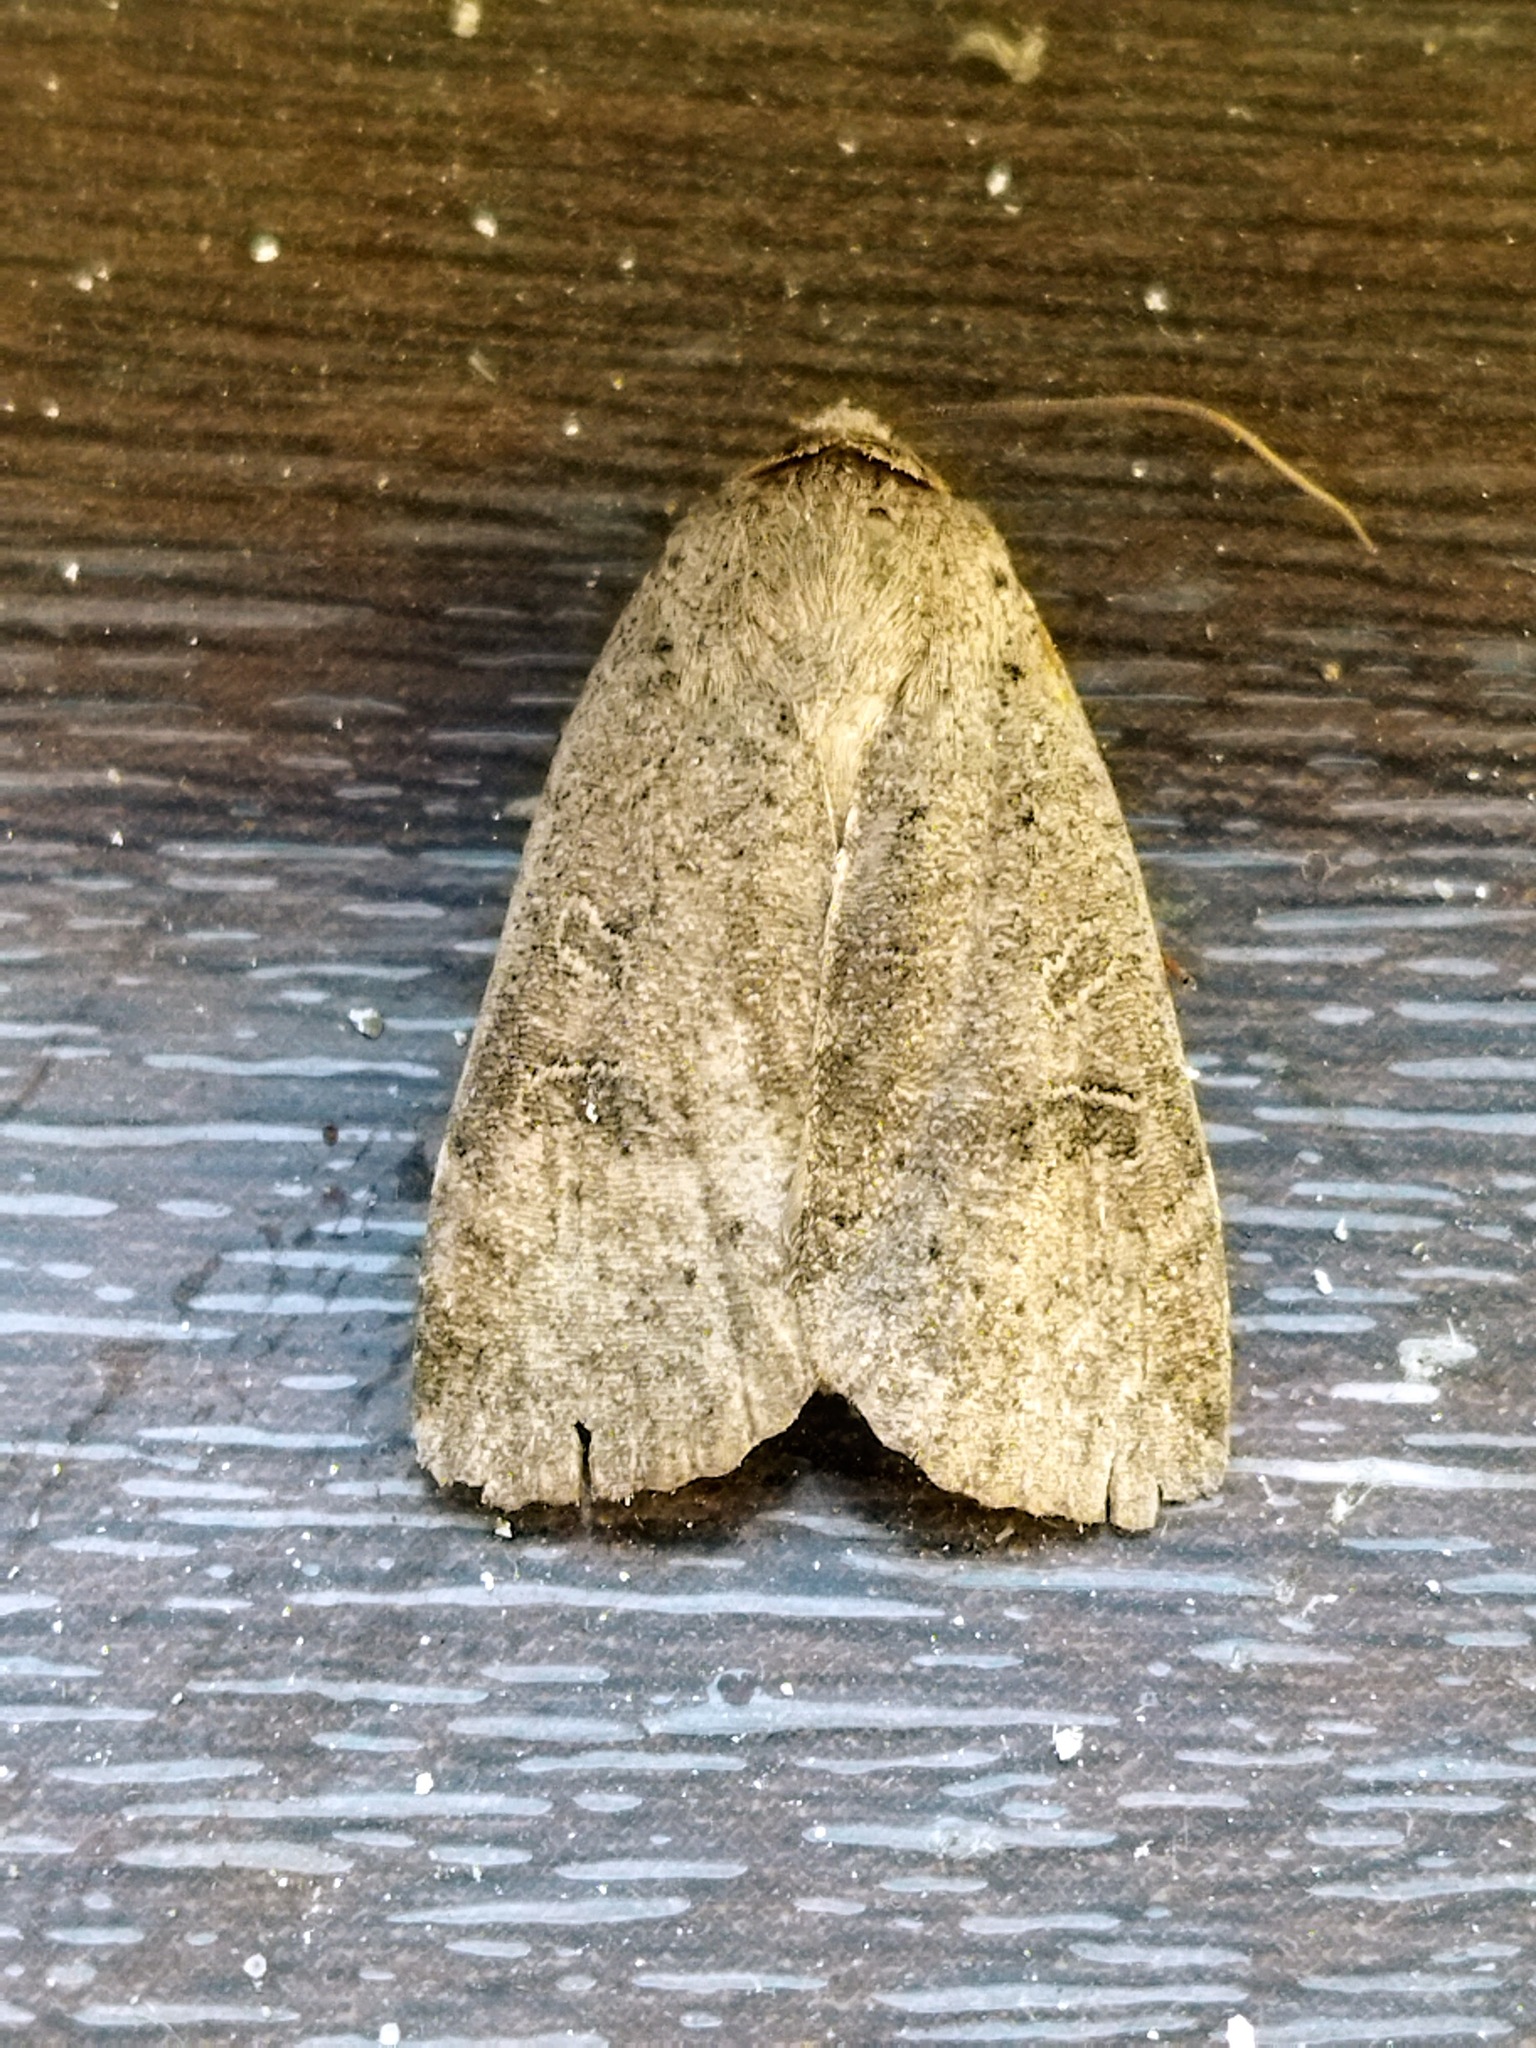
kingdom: Animalia
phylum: Arthropoda
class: Insecta
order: Lepidoptera
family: Noctuidae
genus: Noctua
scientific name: Noctua comes
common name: Lesser yellow underwing
